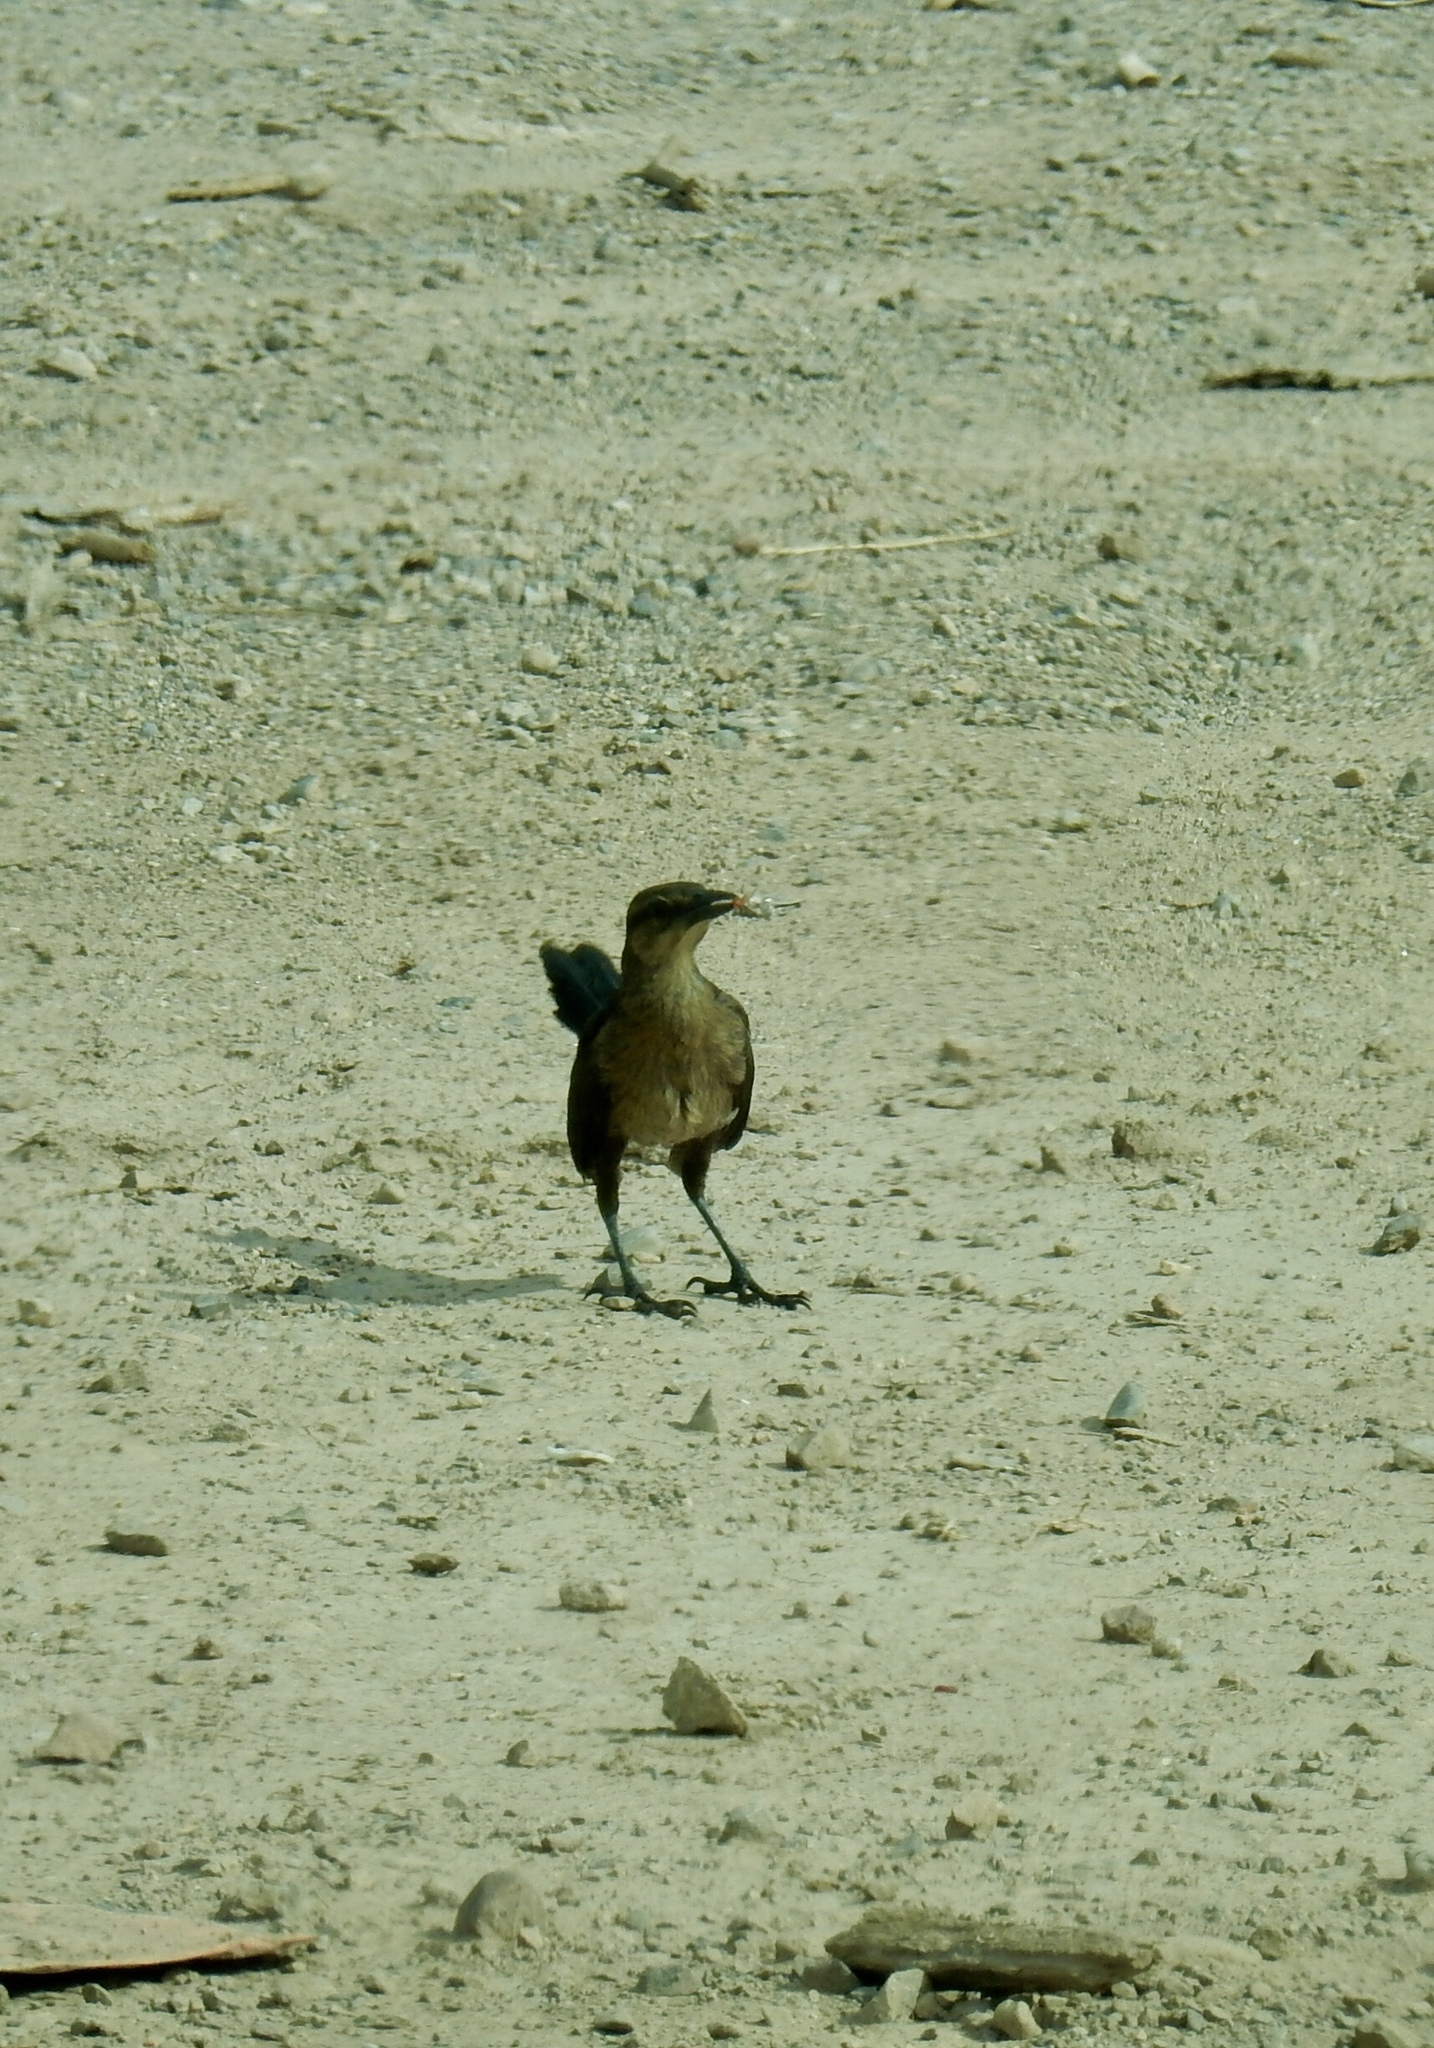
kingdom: Animalia
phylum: Chordata
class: Aves
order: Passeriformes
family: Icteridae
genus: Quiscalus
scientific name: Quiscalus mexicanus
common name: Great-tailed grackle
